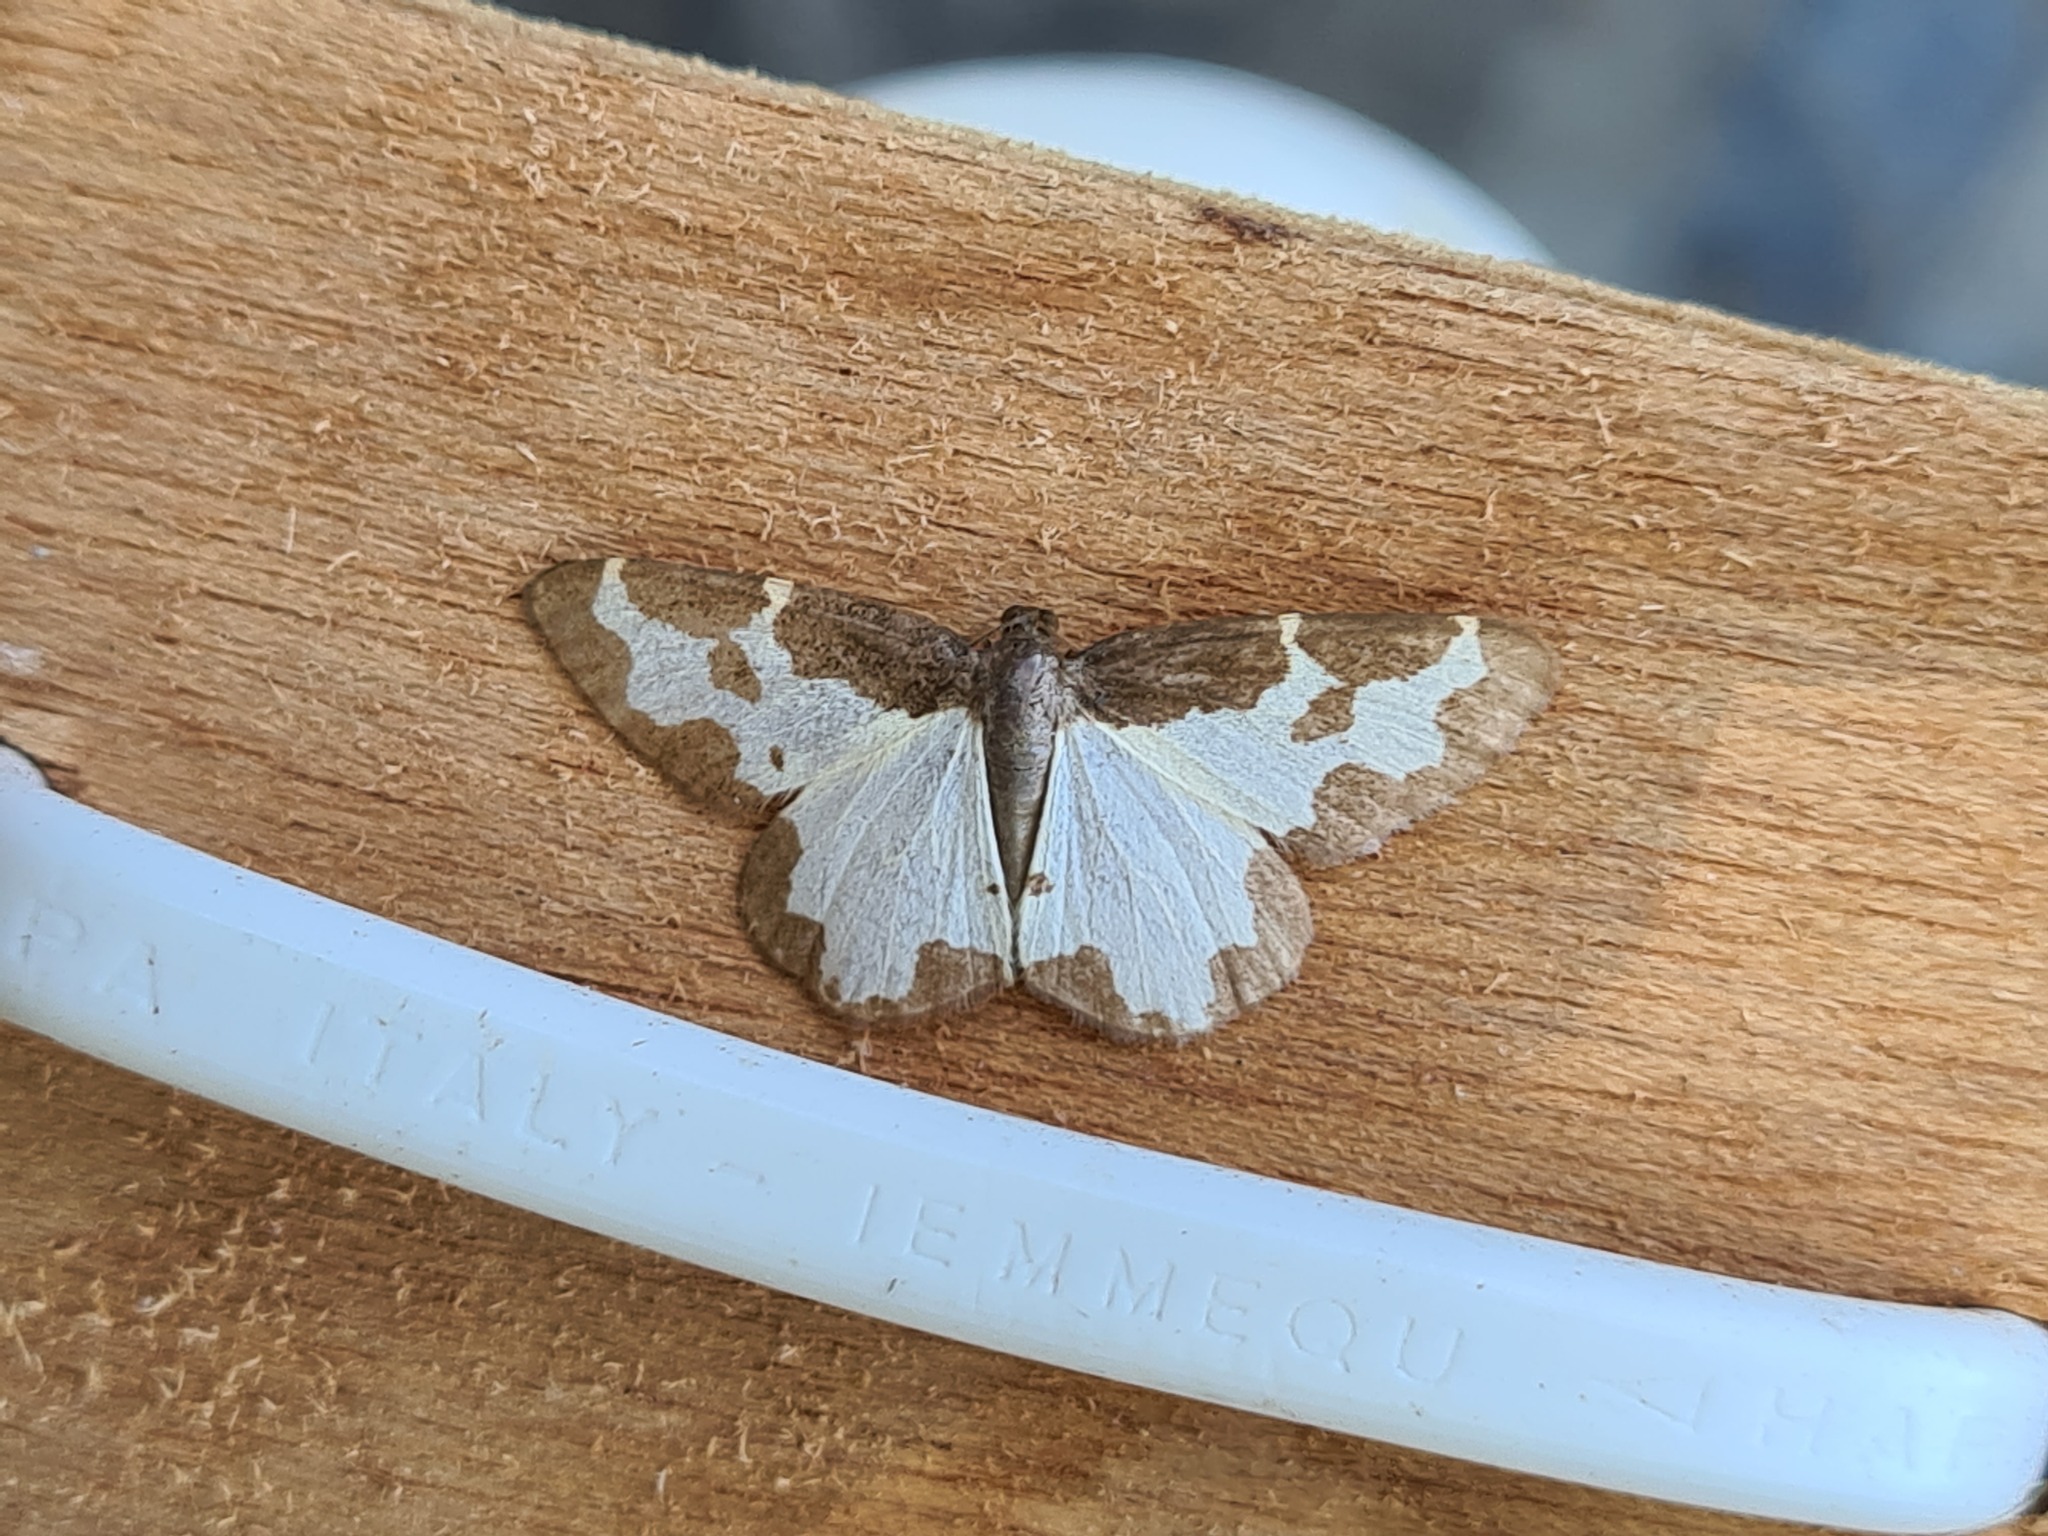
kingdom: Animalia
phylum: Arthropoda
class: Insecta
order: Lepidoptera
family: Geometridae
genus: Lomaspilis
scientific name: Lomaspilis marginata
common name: Clouded border
